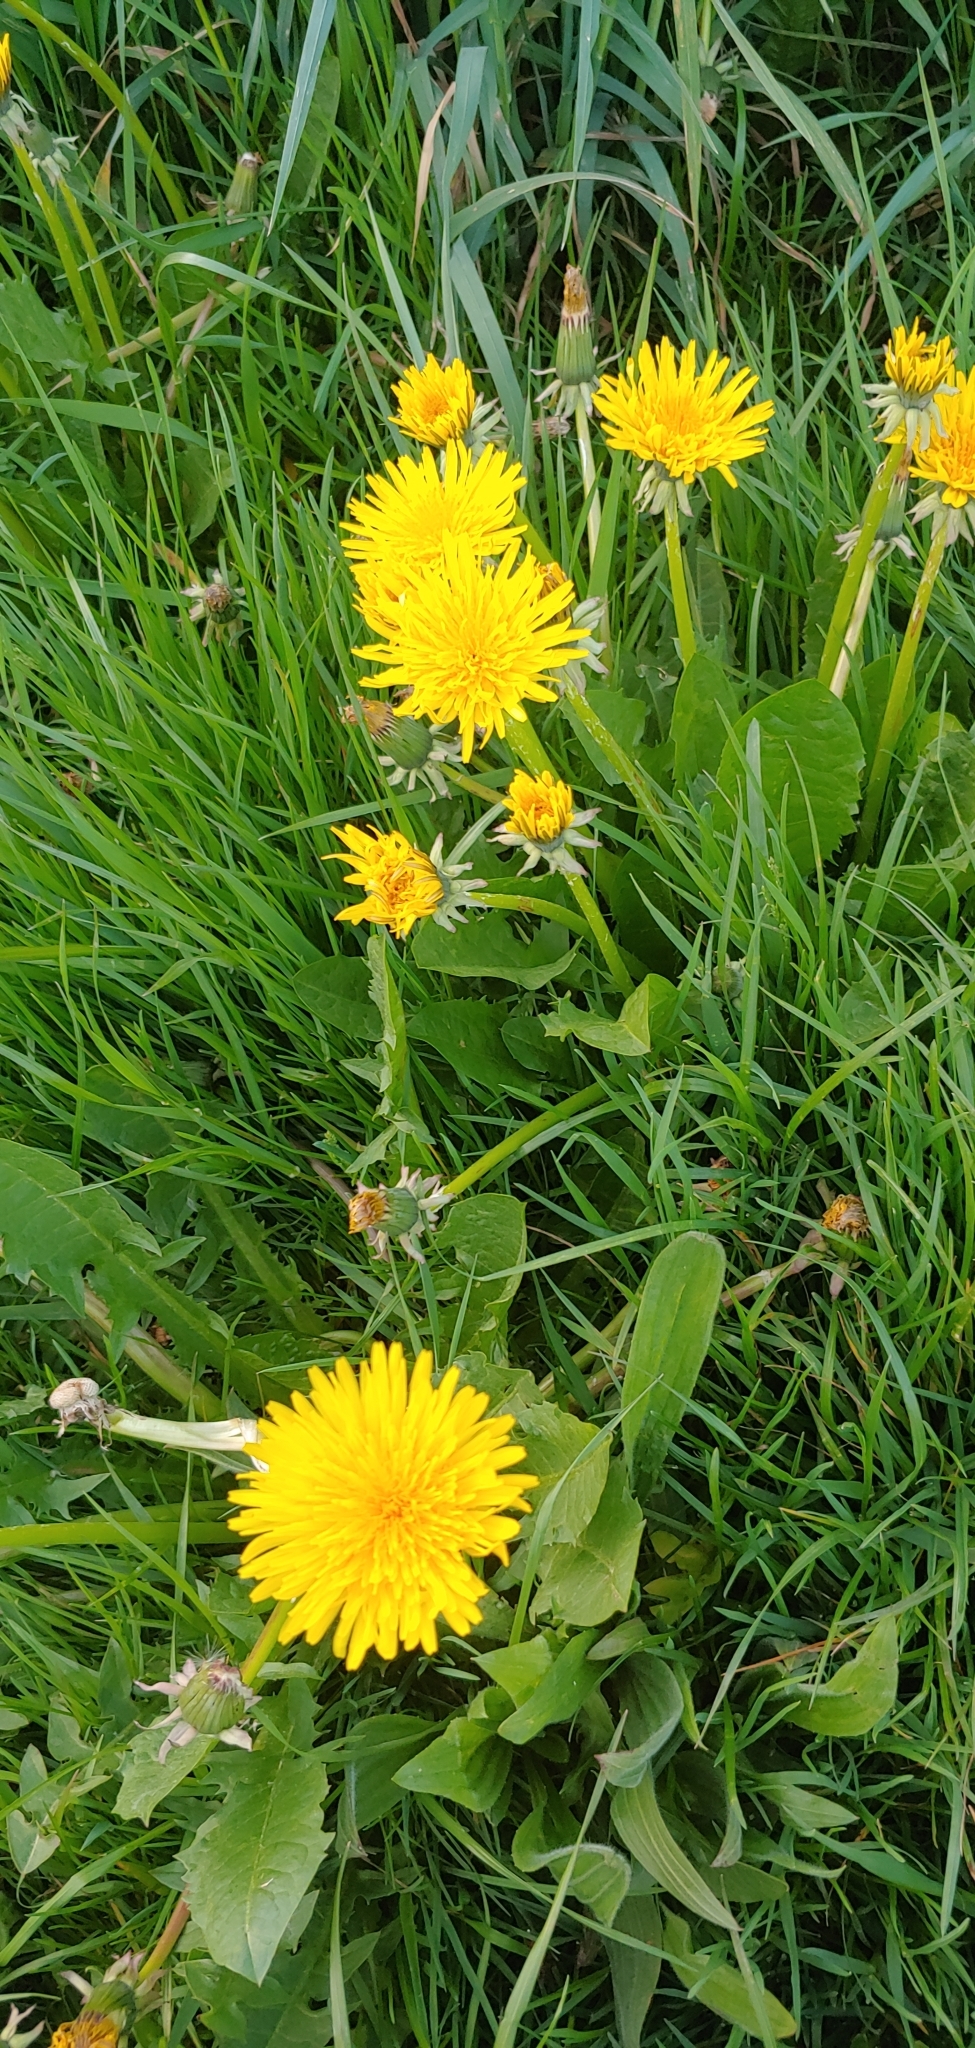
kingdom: Plantae
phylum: Tracheophyta
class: Magnoliopsida
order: Asterales
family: Asteraceae
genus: Taraxacum
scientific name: Taraxacum officinale
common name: Common dandelion
